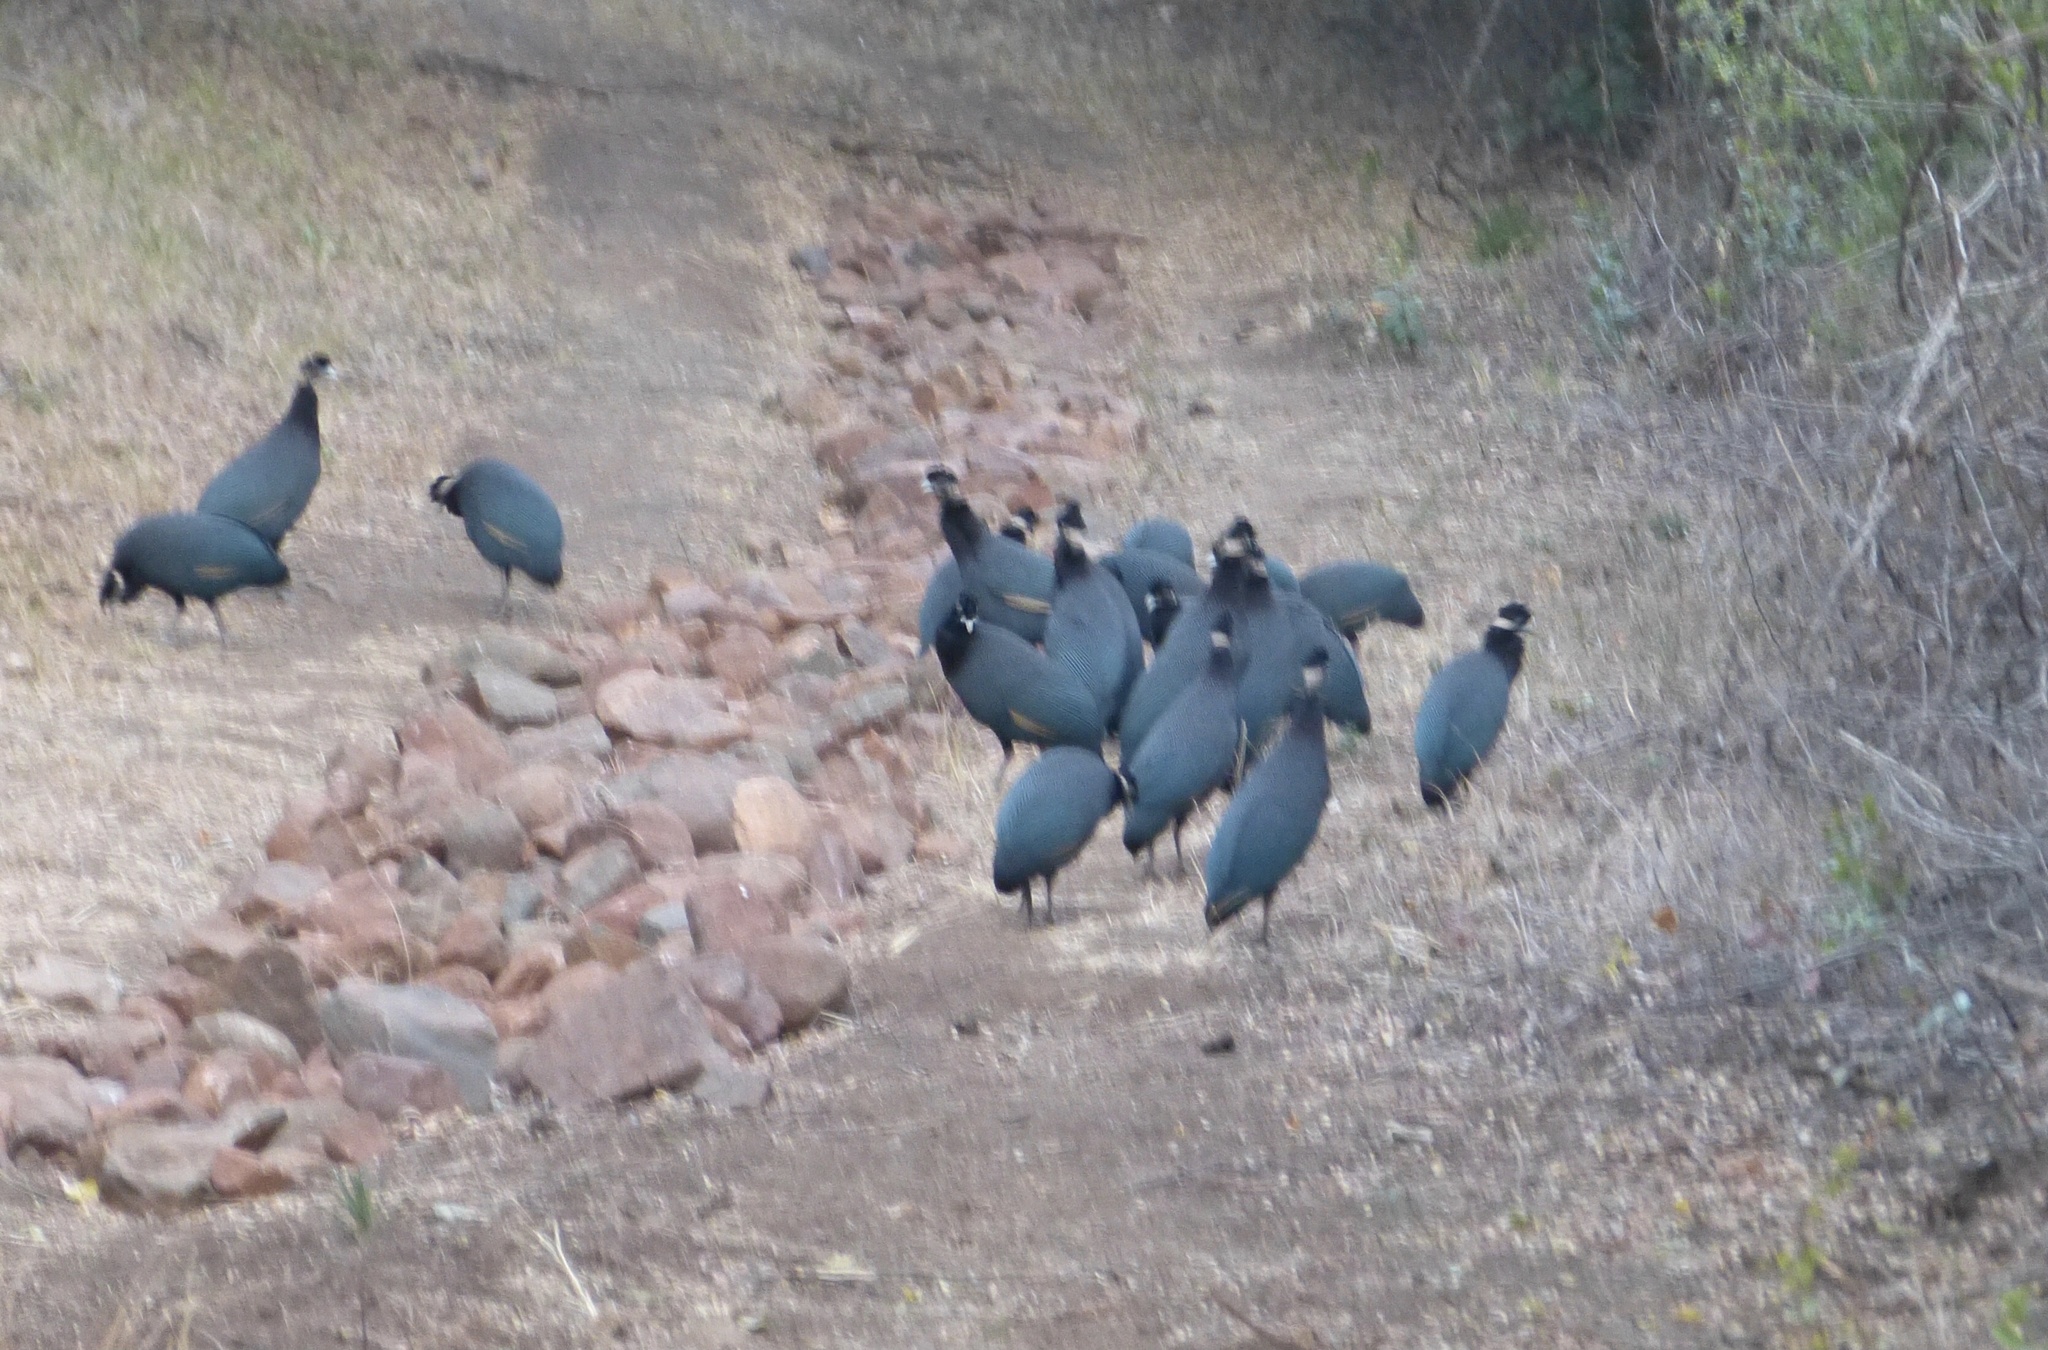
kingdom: Animalia
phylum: Chordata
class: Aves
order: Galliformes
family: Numididae
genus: Guttera
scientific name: Guttera pucherani
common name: Crested guineafowl
